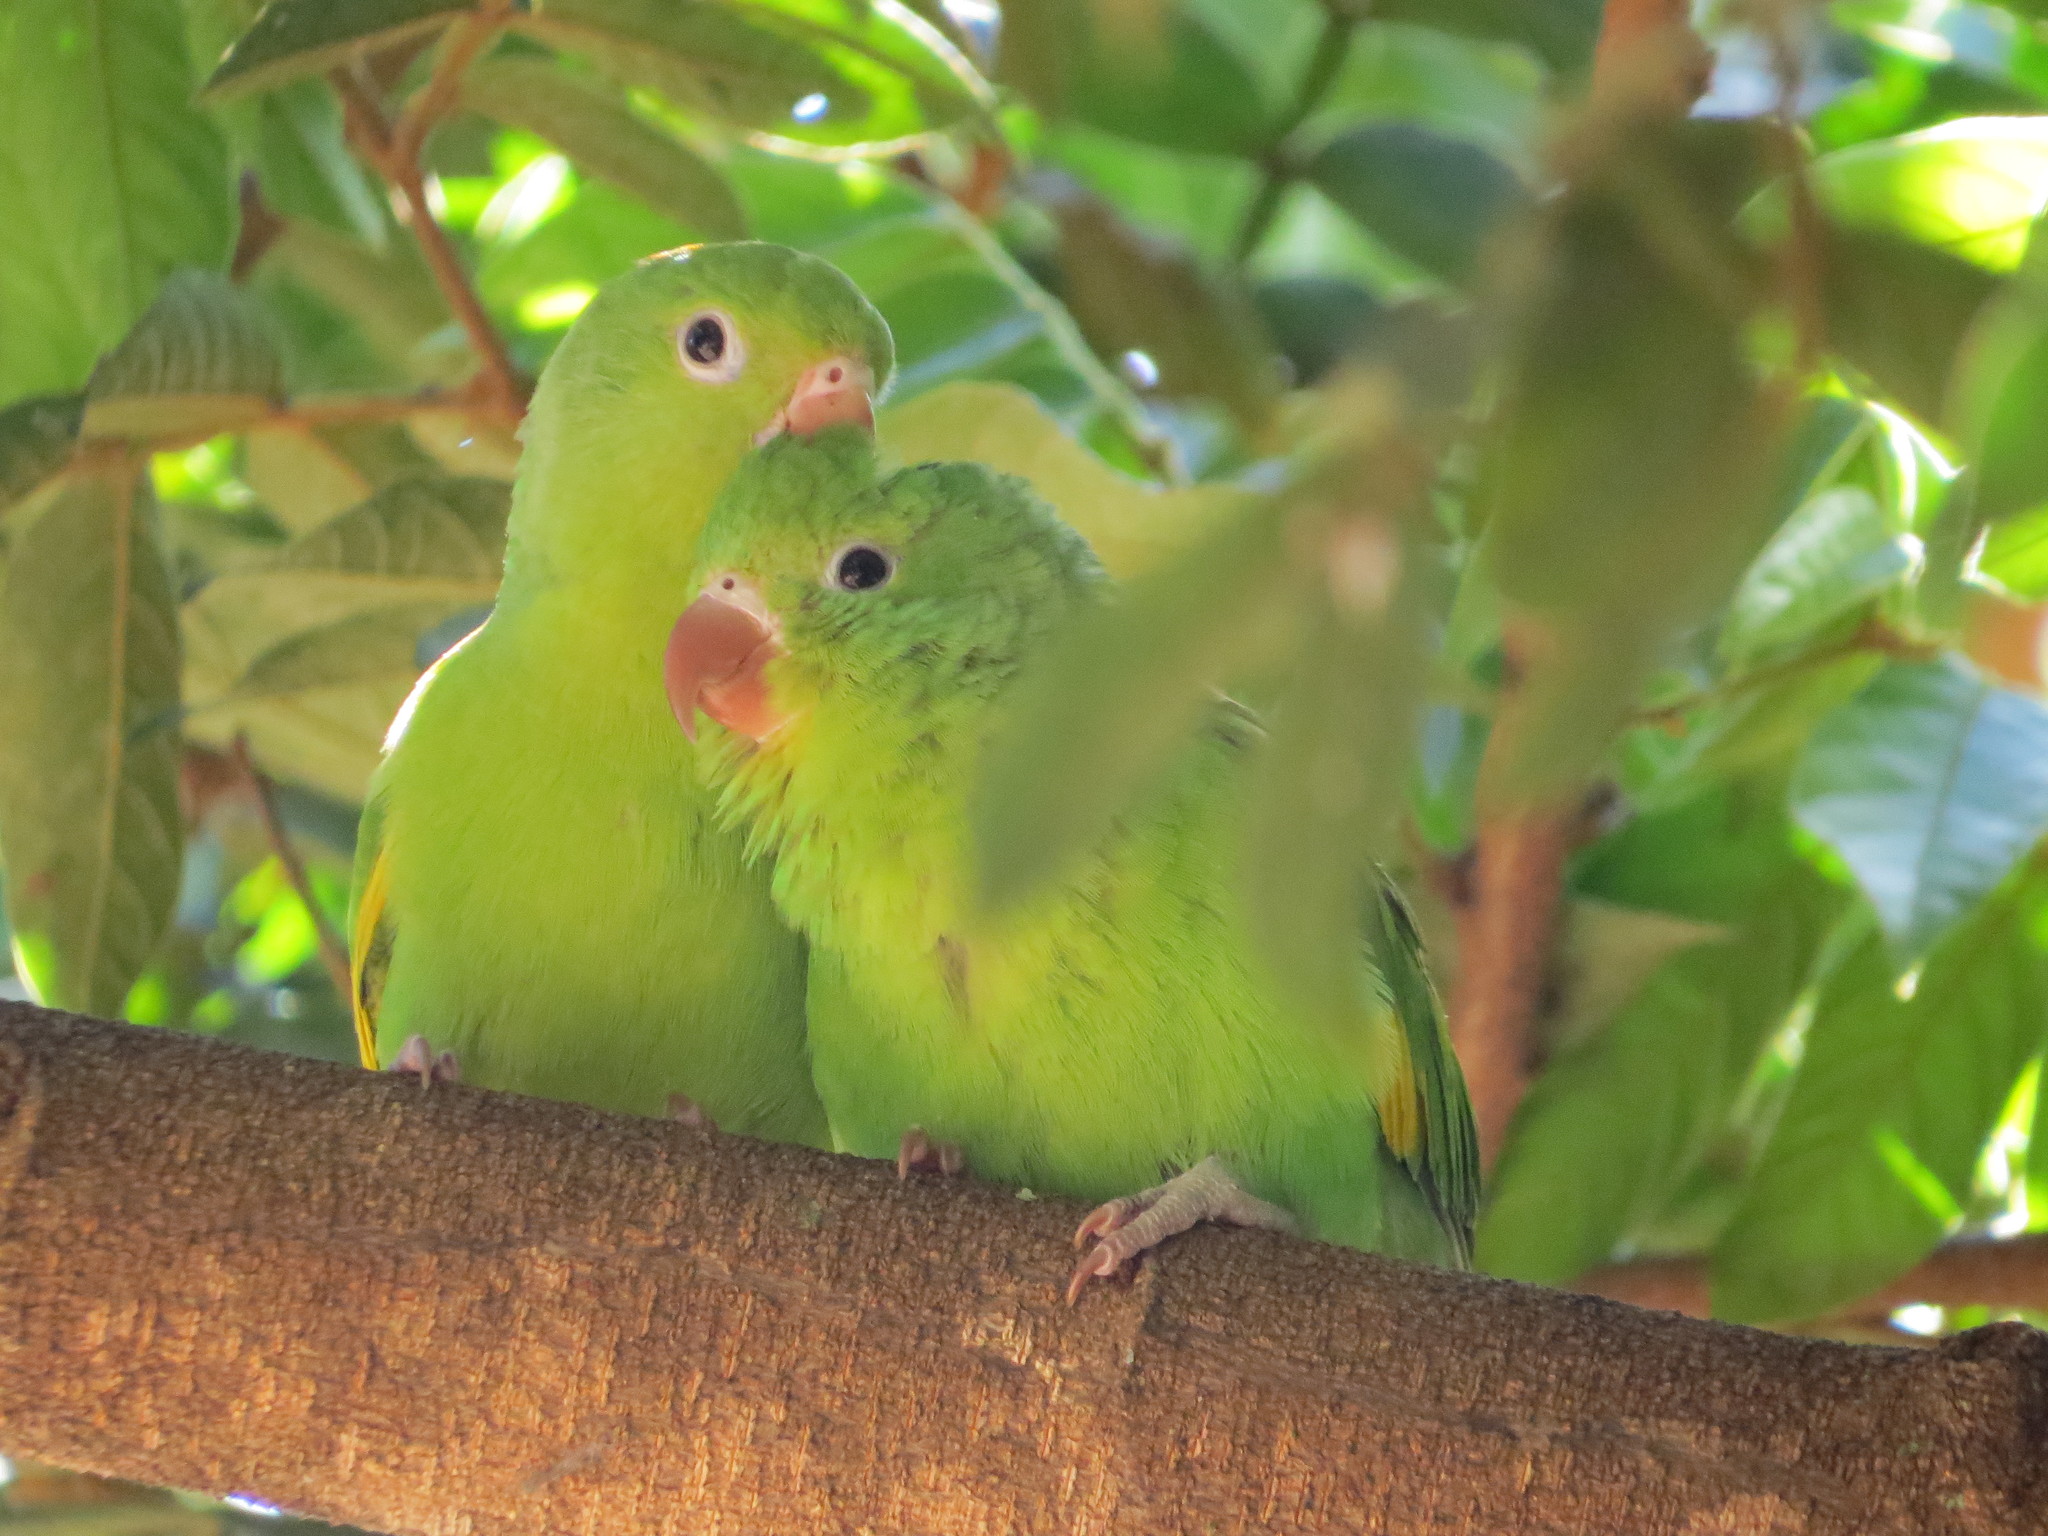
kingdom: Animalia
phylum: Chordata
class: Aves
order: Psittaciformes
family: Psittacidae
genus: Brotogeris
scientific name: Brotogeris chiriri
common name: Yellow-chevroned parakeet
